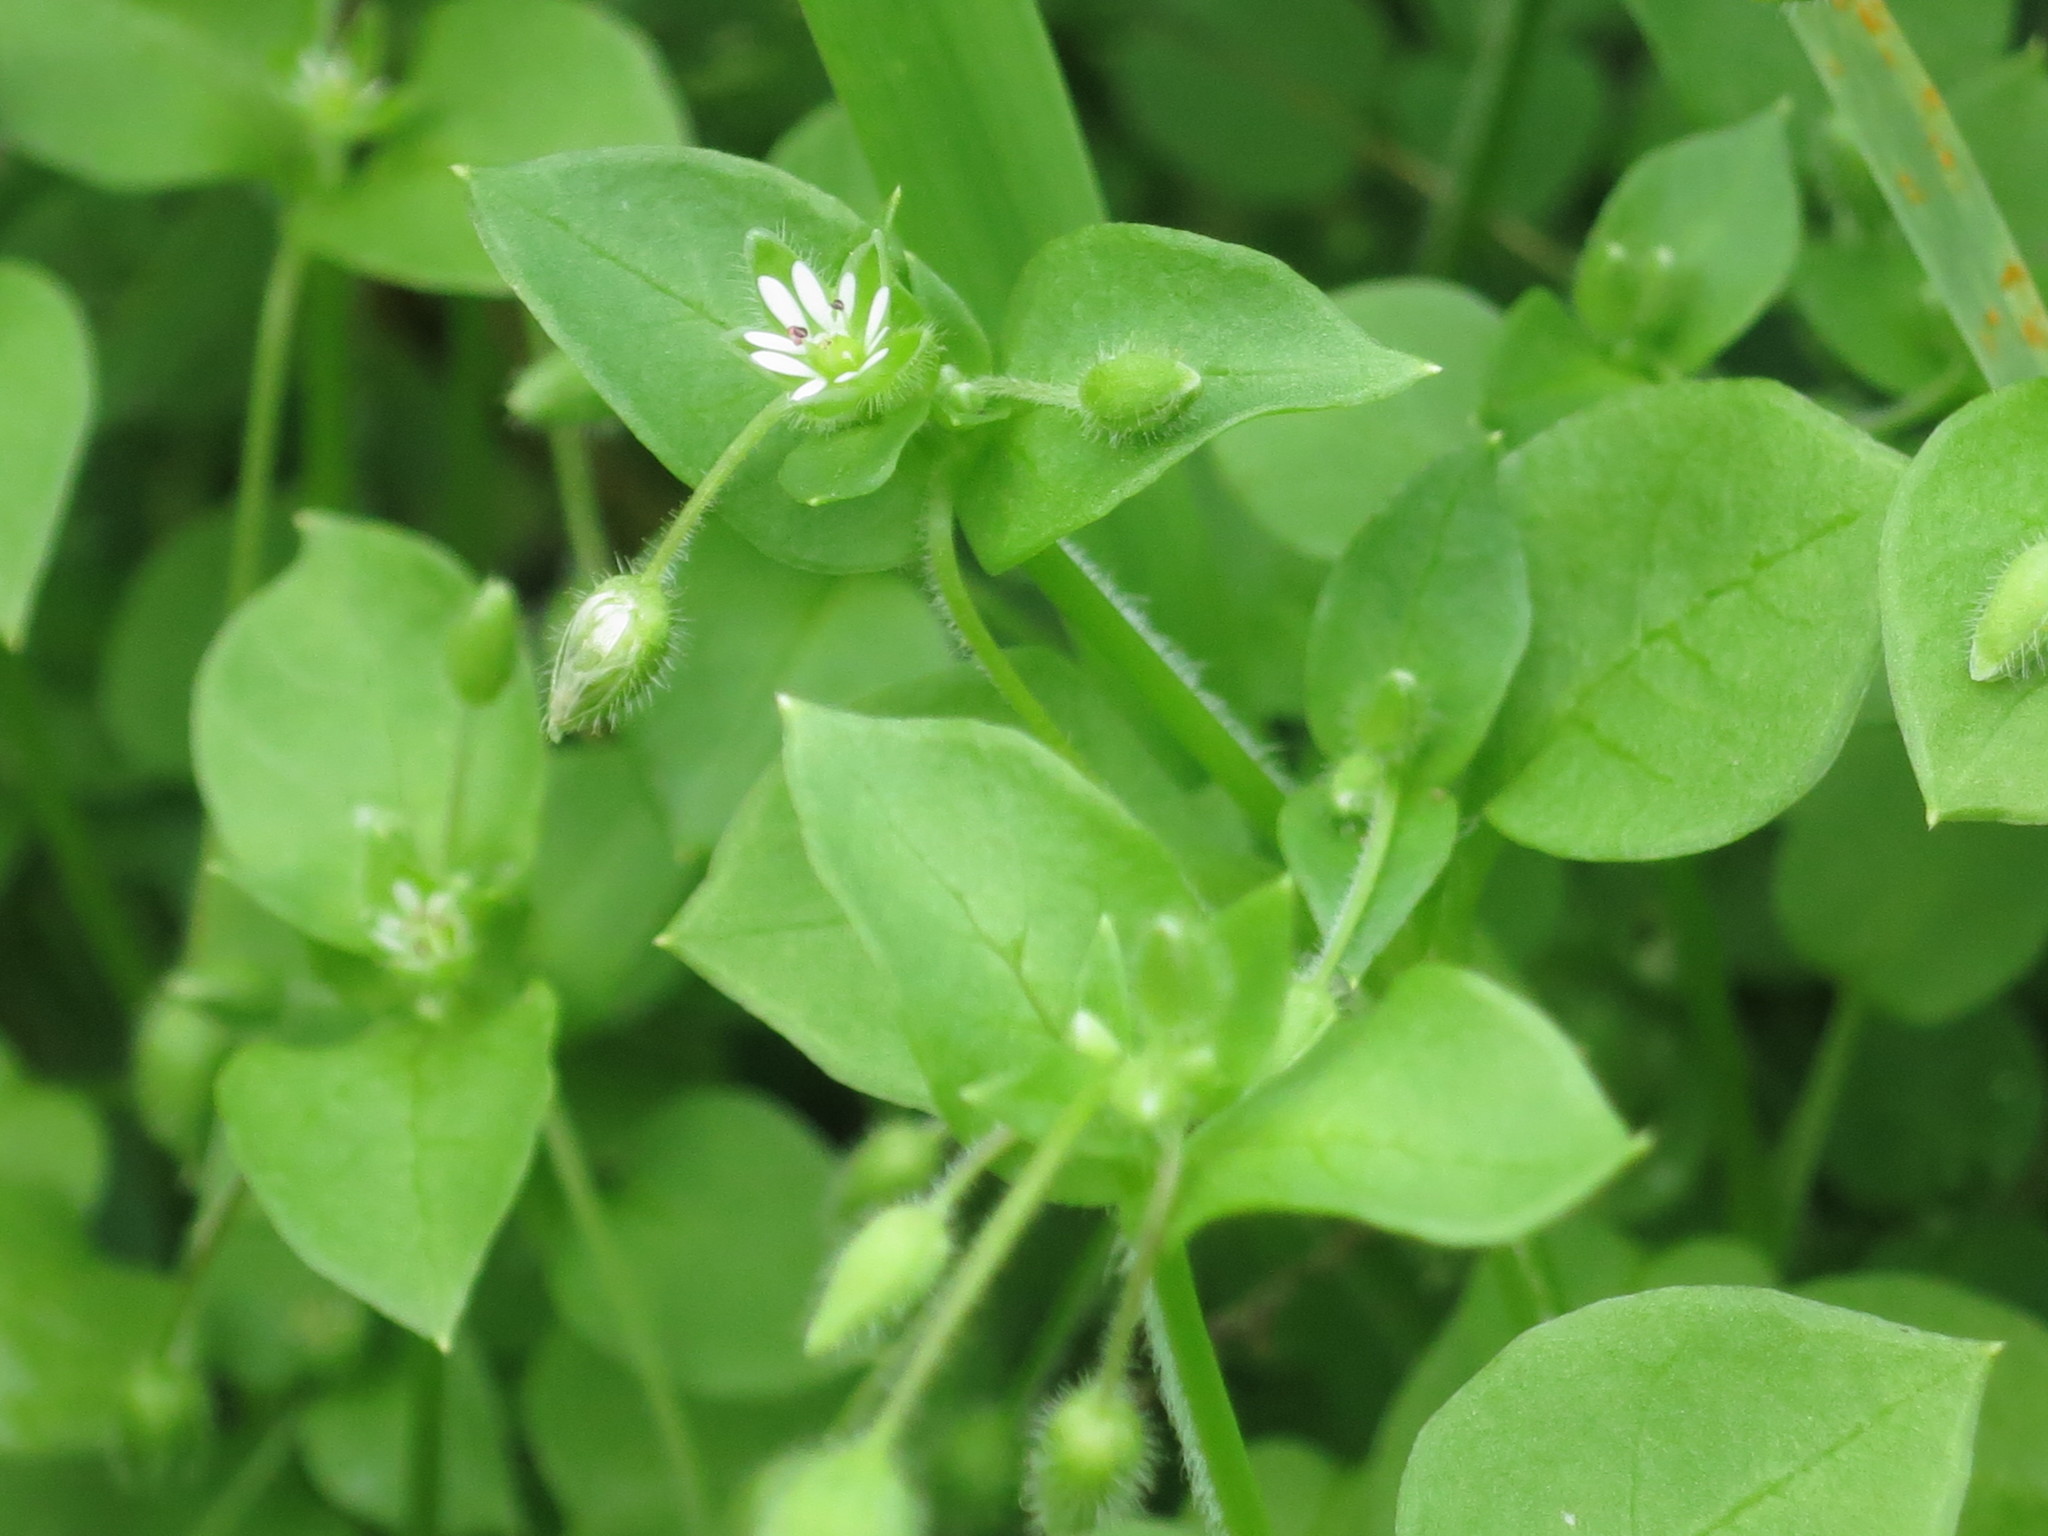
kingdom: Plantae
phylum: Tracheophyta
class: Magnoliopsida
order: Caryophyllales
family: Caryophyllaceae
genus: Stellaria
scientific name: Stellaria media
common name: Common chickweed
